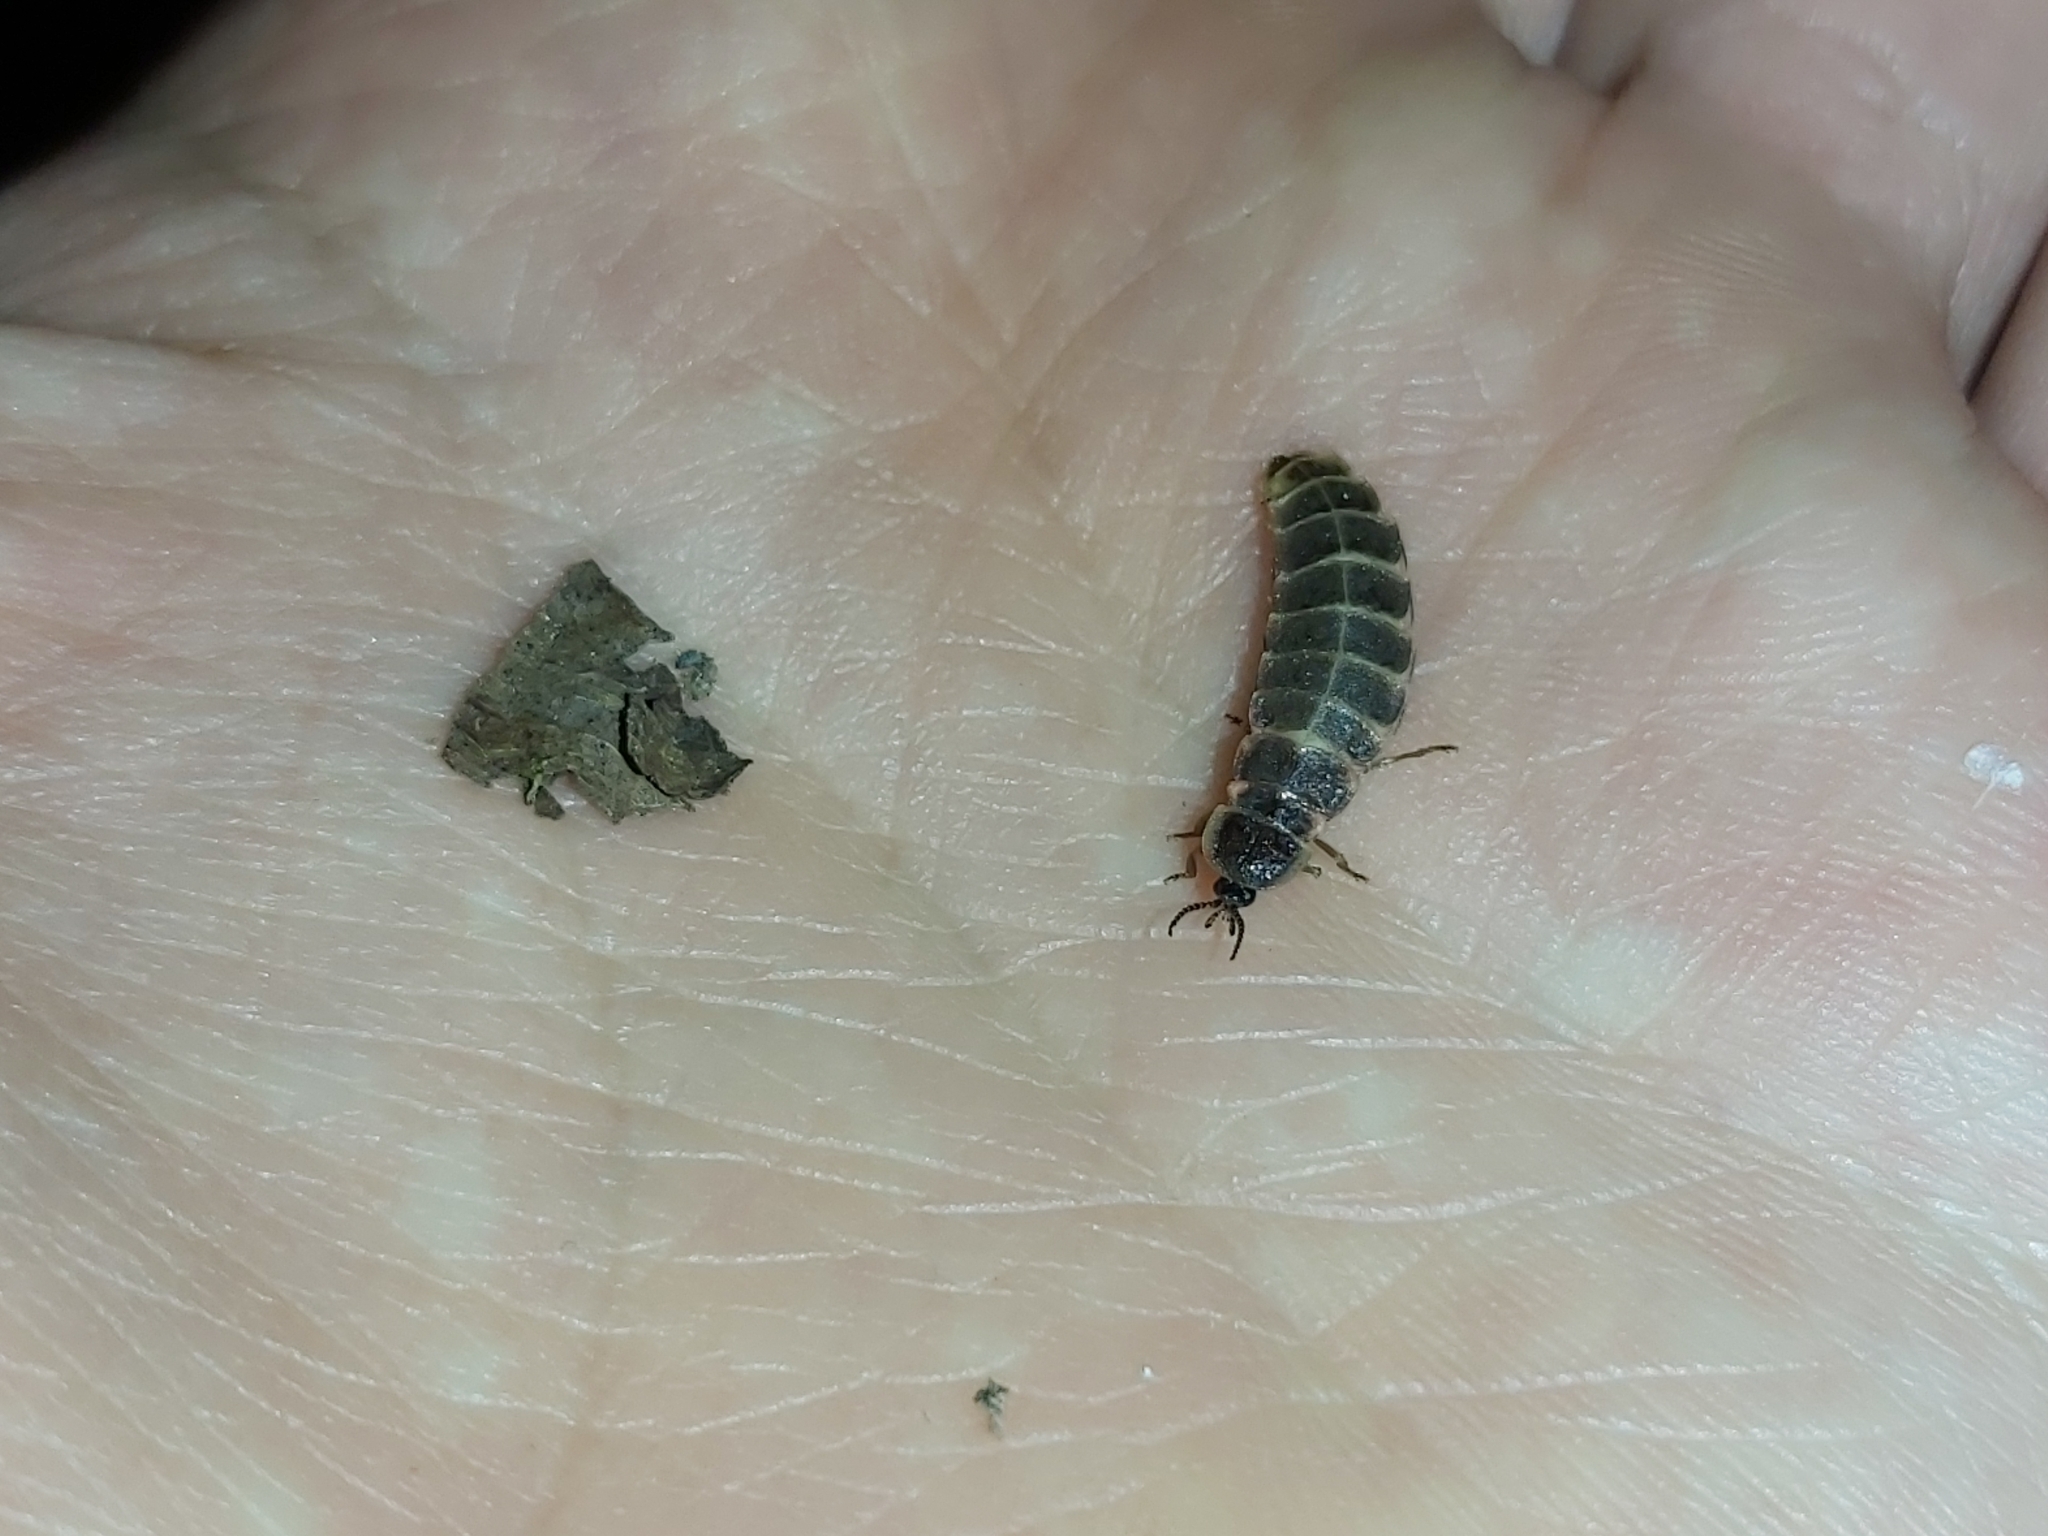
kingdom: Animalia
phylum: Arthropoda
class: Insecta
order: Coleoptera
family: Lampyridae
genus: Lampyris
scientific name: Lampyris noctiluca
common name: Glow-worm
